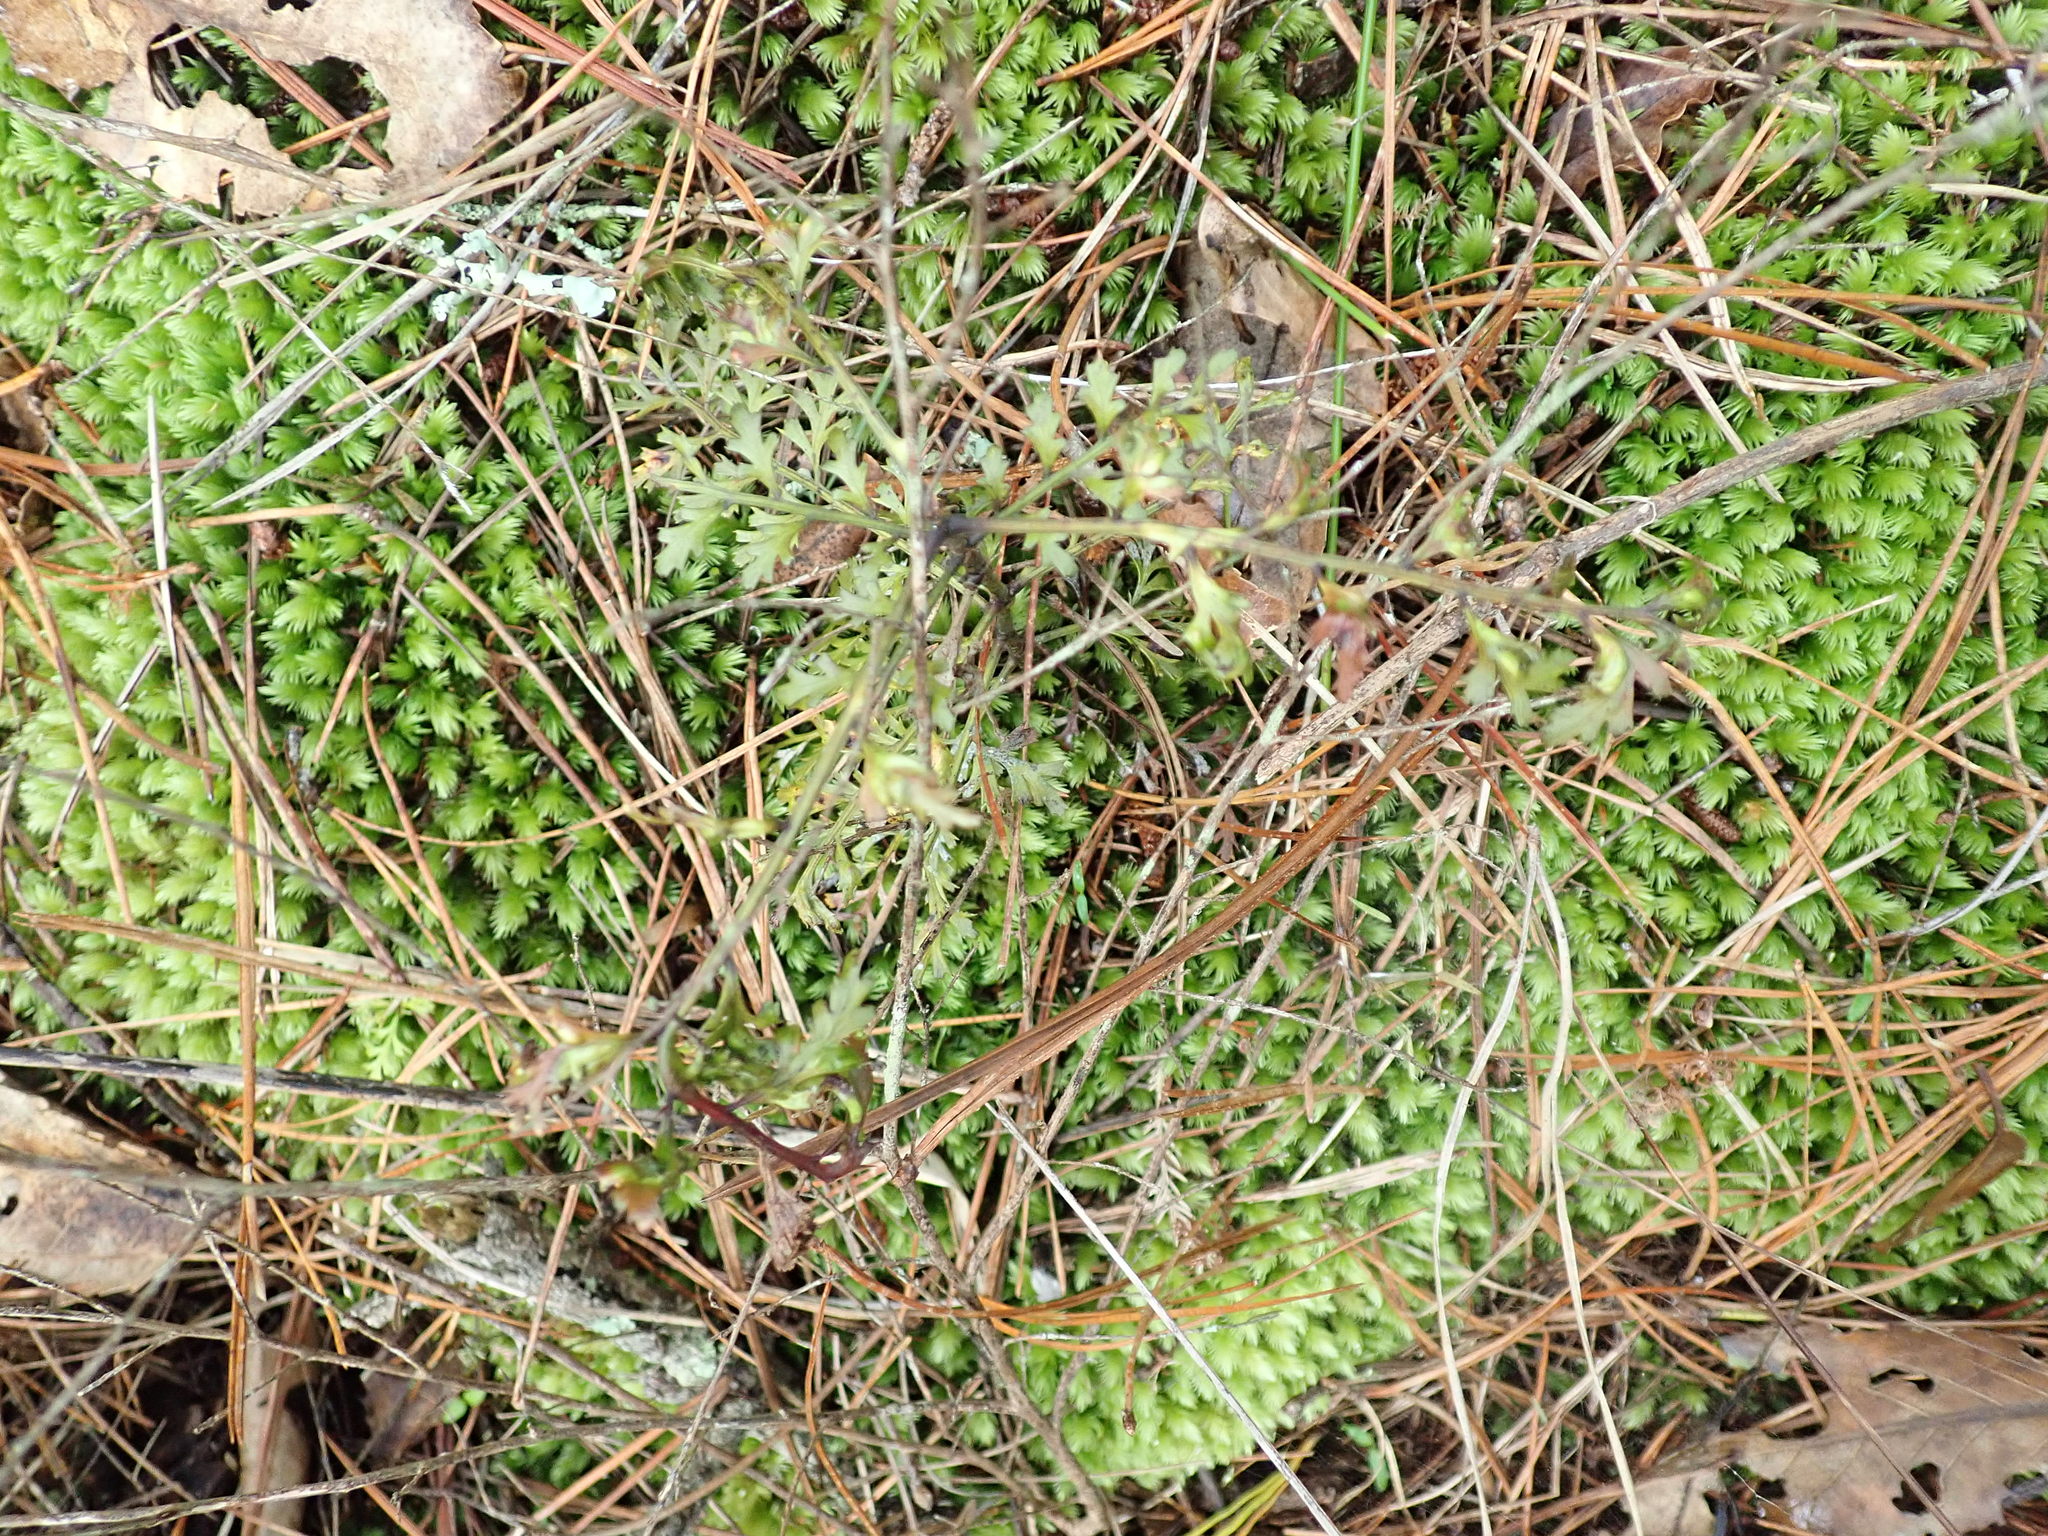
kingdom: Plantae
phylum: Tracheophyta
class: Pinopsida
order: Pinales
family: Phyllocladaceae
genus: Phyllocladus
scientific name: Phyllocladus trichomanoides
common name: Celery pine
